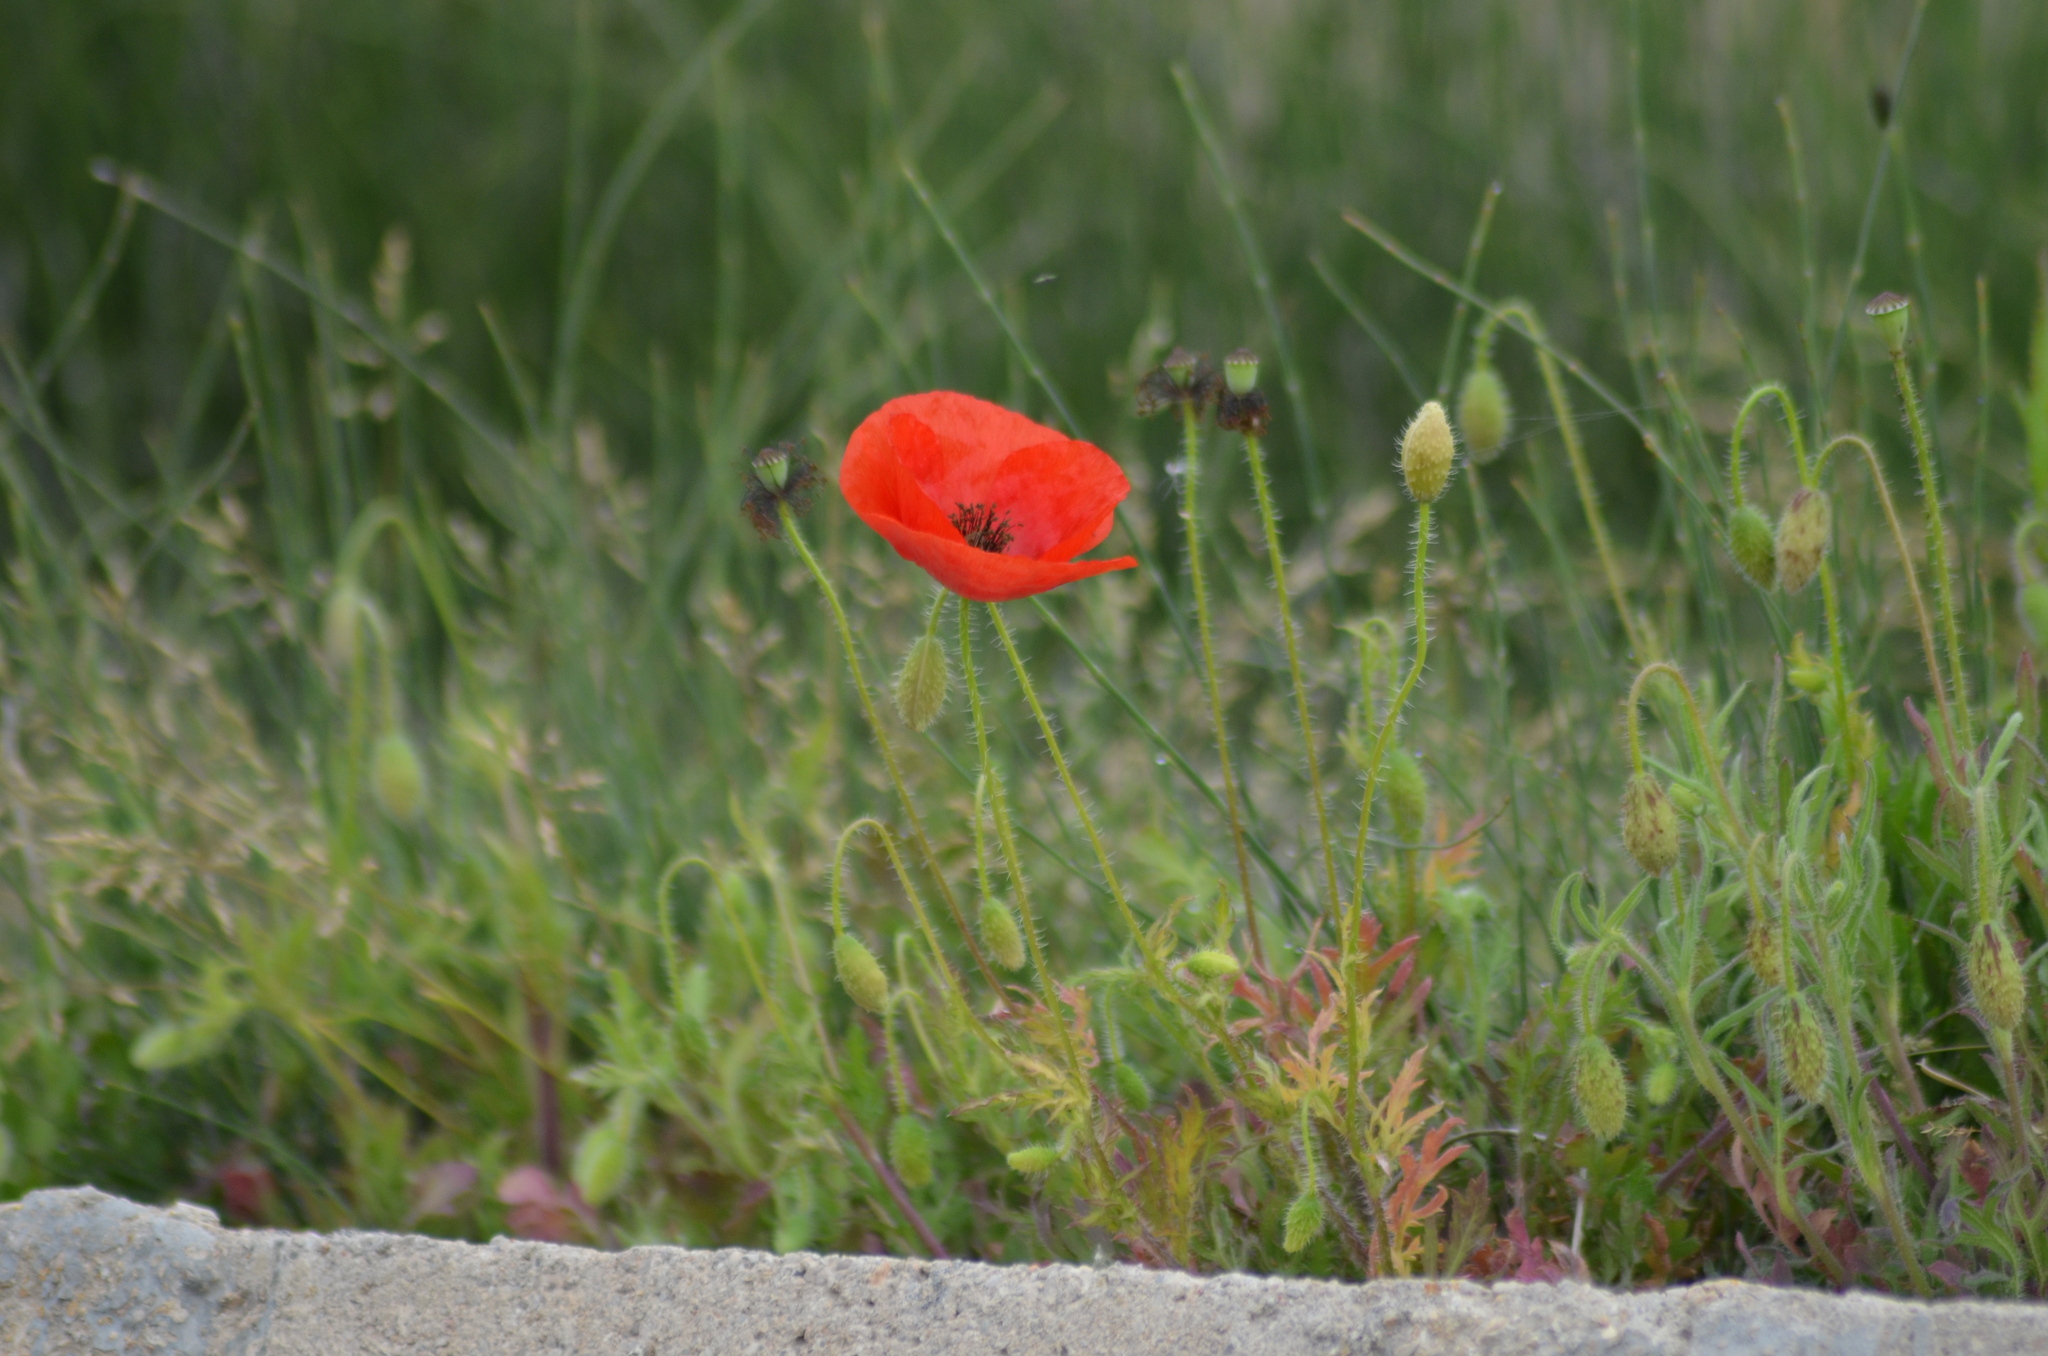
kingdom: Plantae
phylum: Tracheophyta
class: Magnoliopsida
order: Ranunculales
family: Papaveraceae
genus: Papaver
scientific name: Papaver rhoeas
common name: Corn poppy
